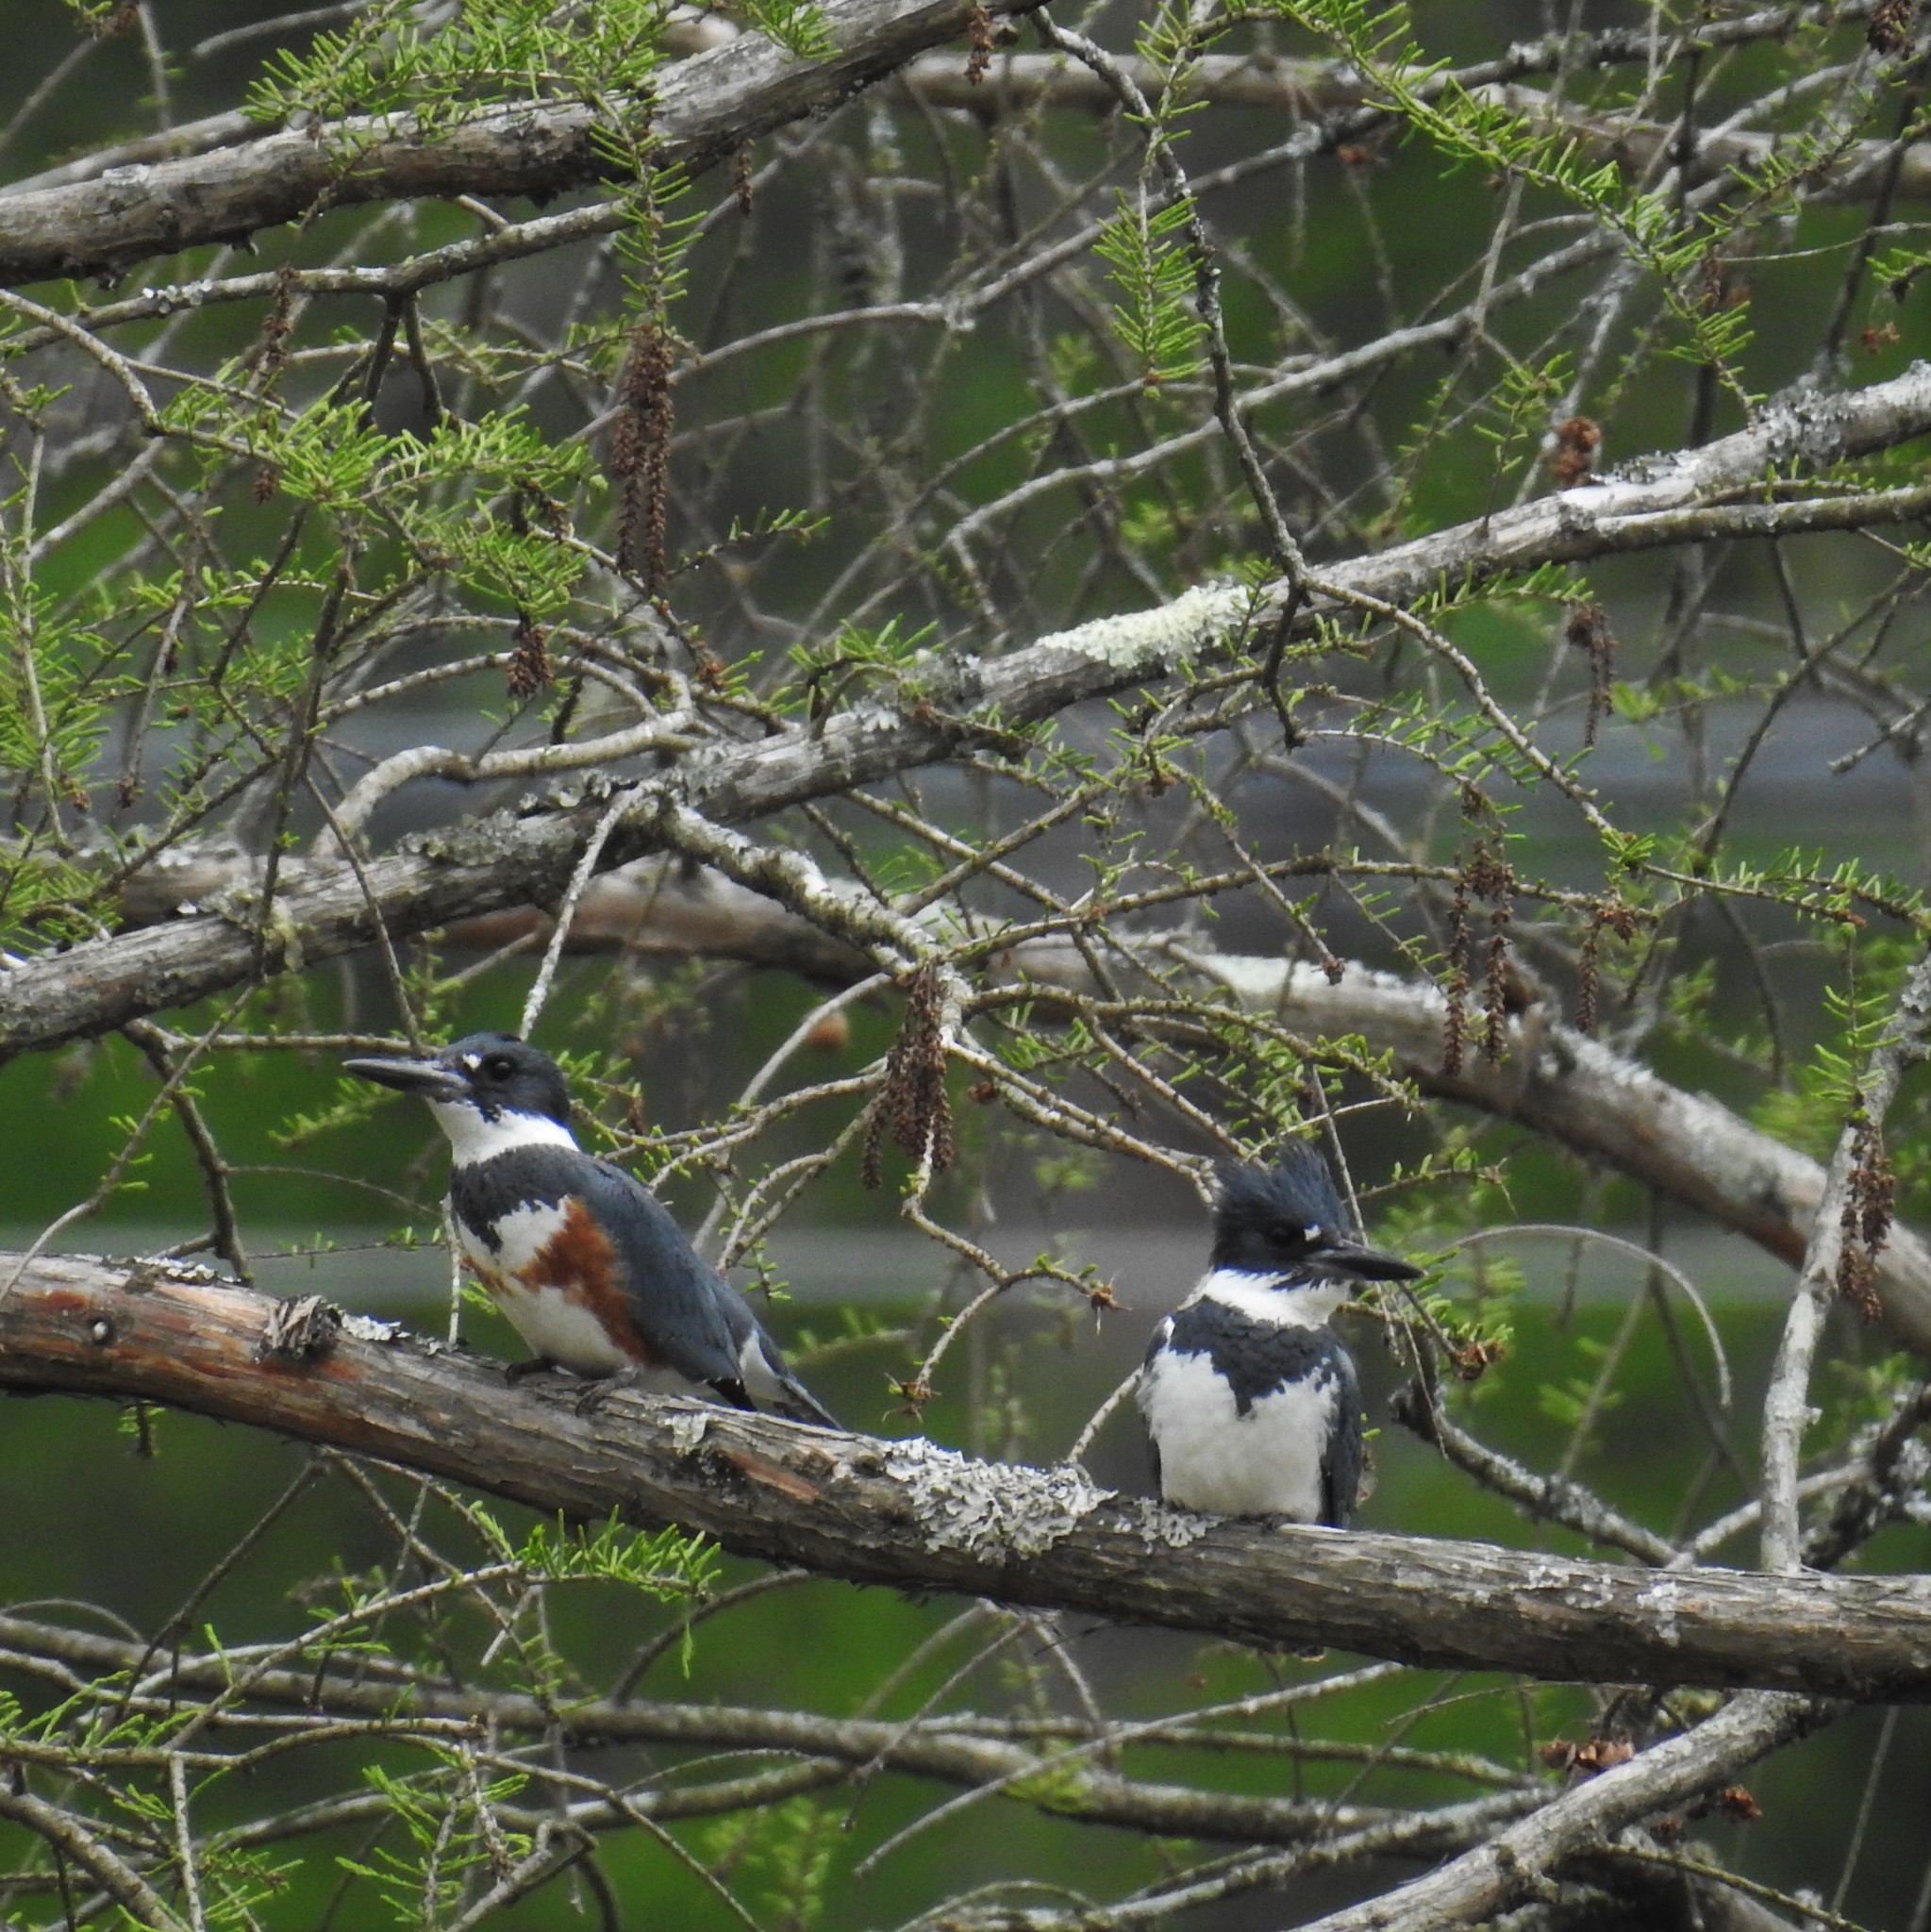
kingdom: Animalia
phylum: Chordata
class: Aves
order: Coraciiformes
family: Alcedinidae
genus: Megaceryle
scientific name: Megaceryle alcyon
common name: Belted kingfisher
